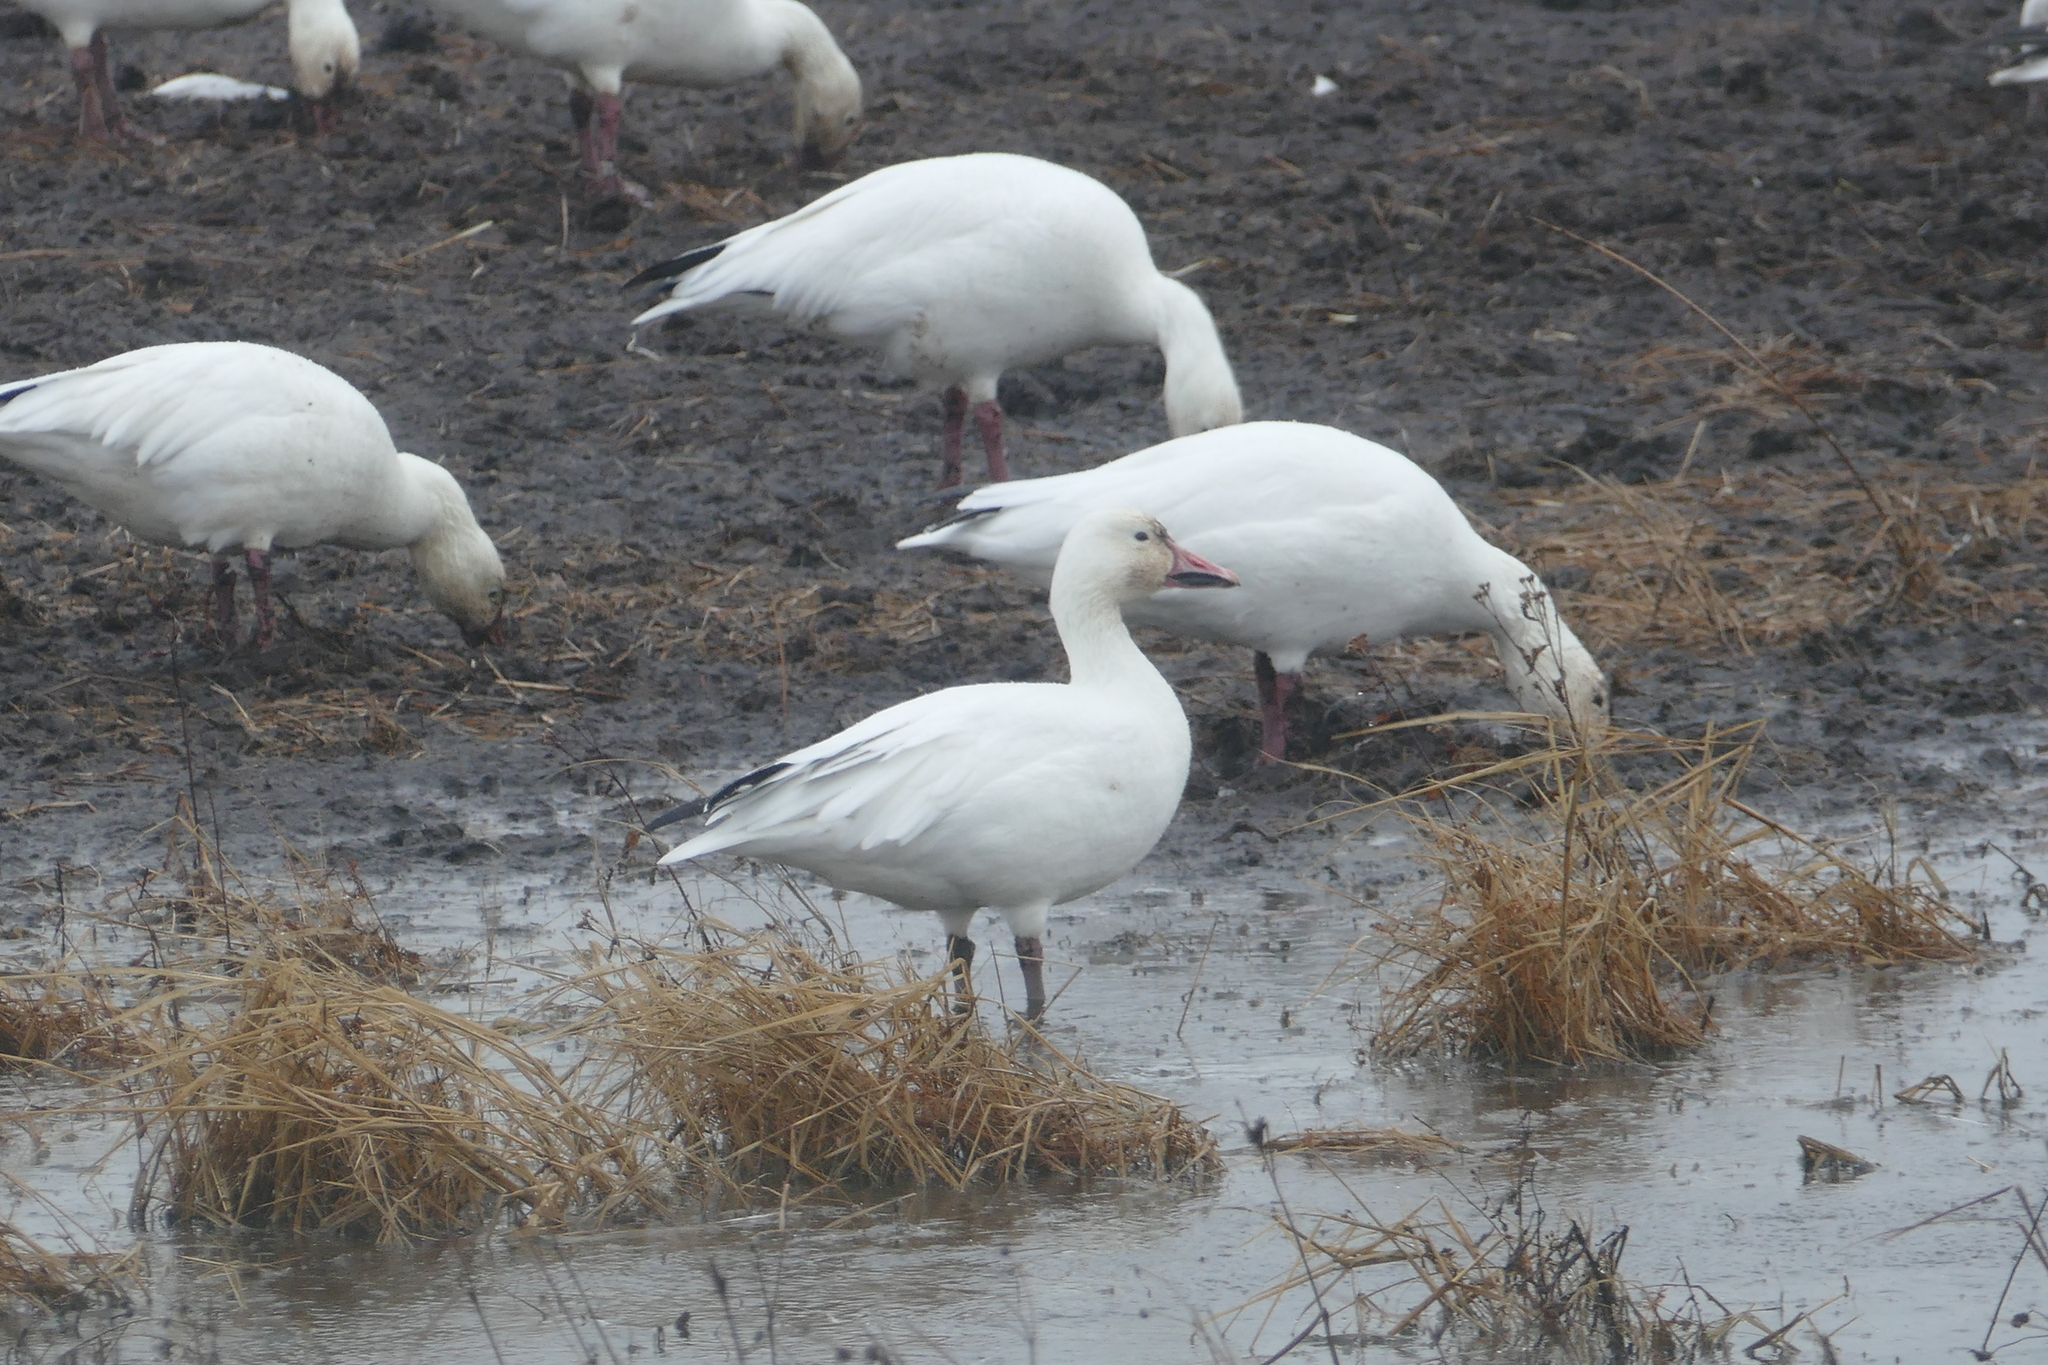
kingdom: Animalia
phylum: Chordata
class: Aves
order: Anseriformes
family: Anatidae
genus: Anser
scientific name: Anser caerulescens
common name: Snow goose
